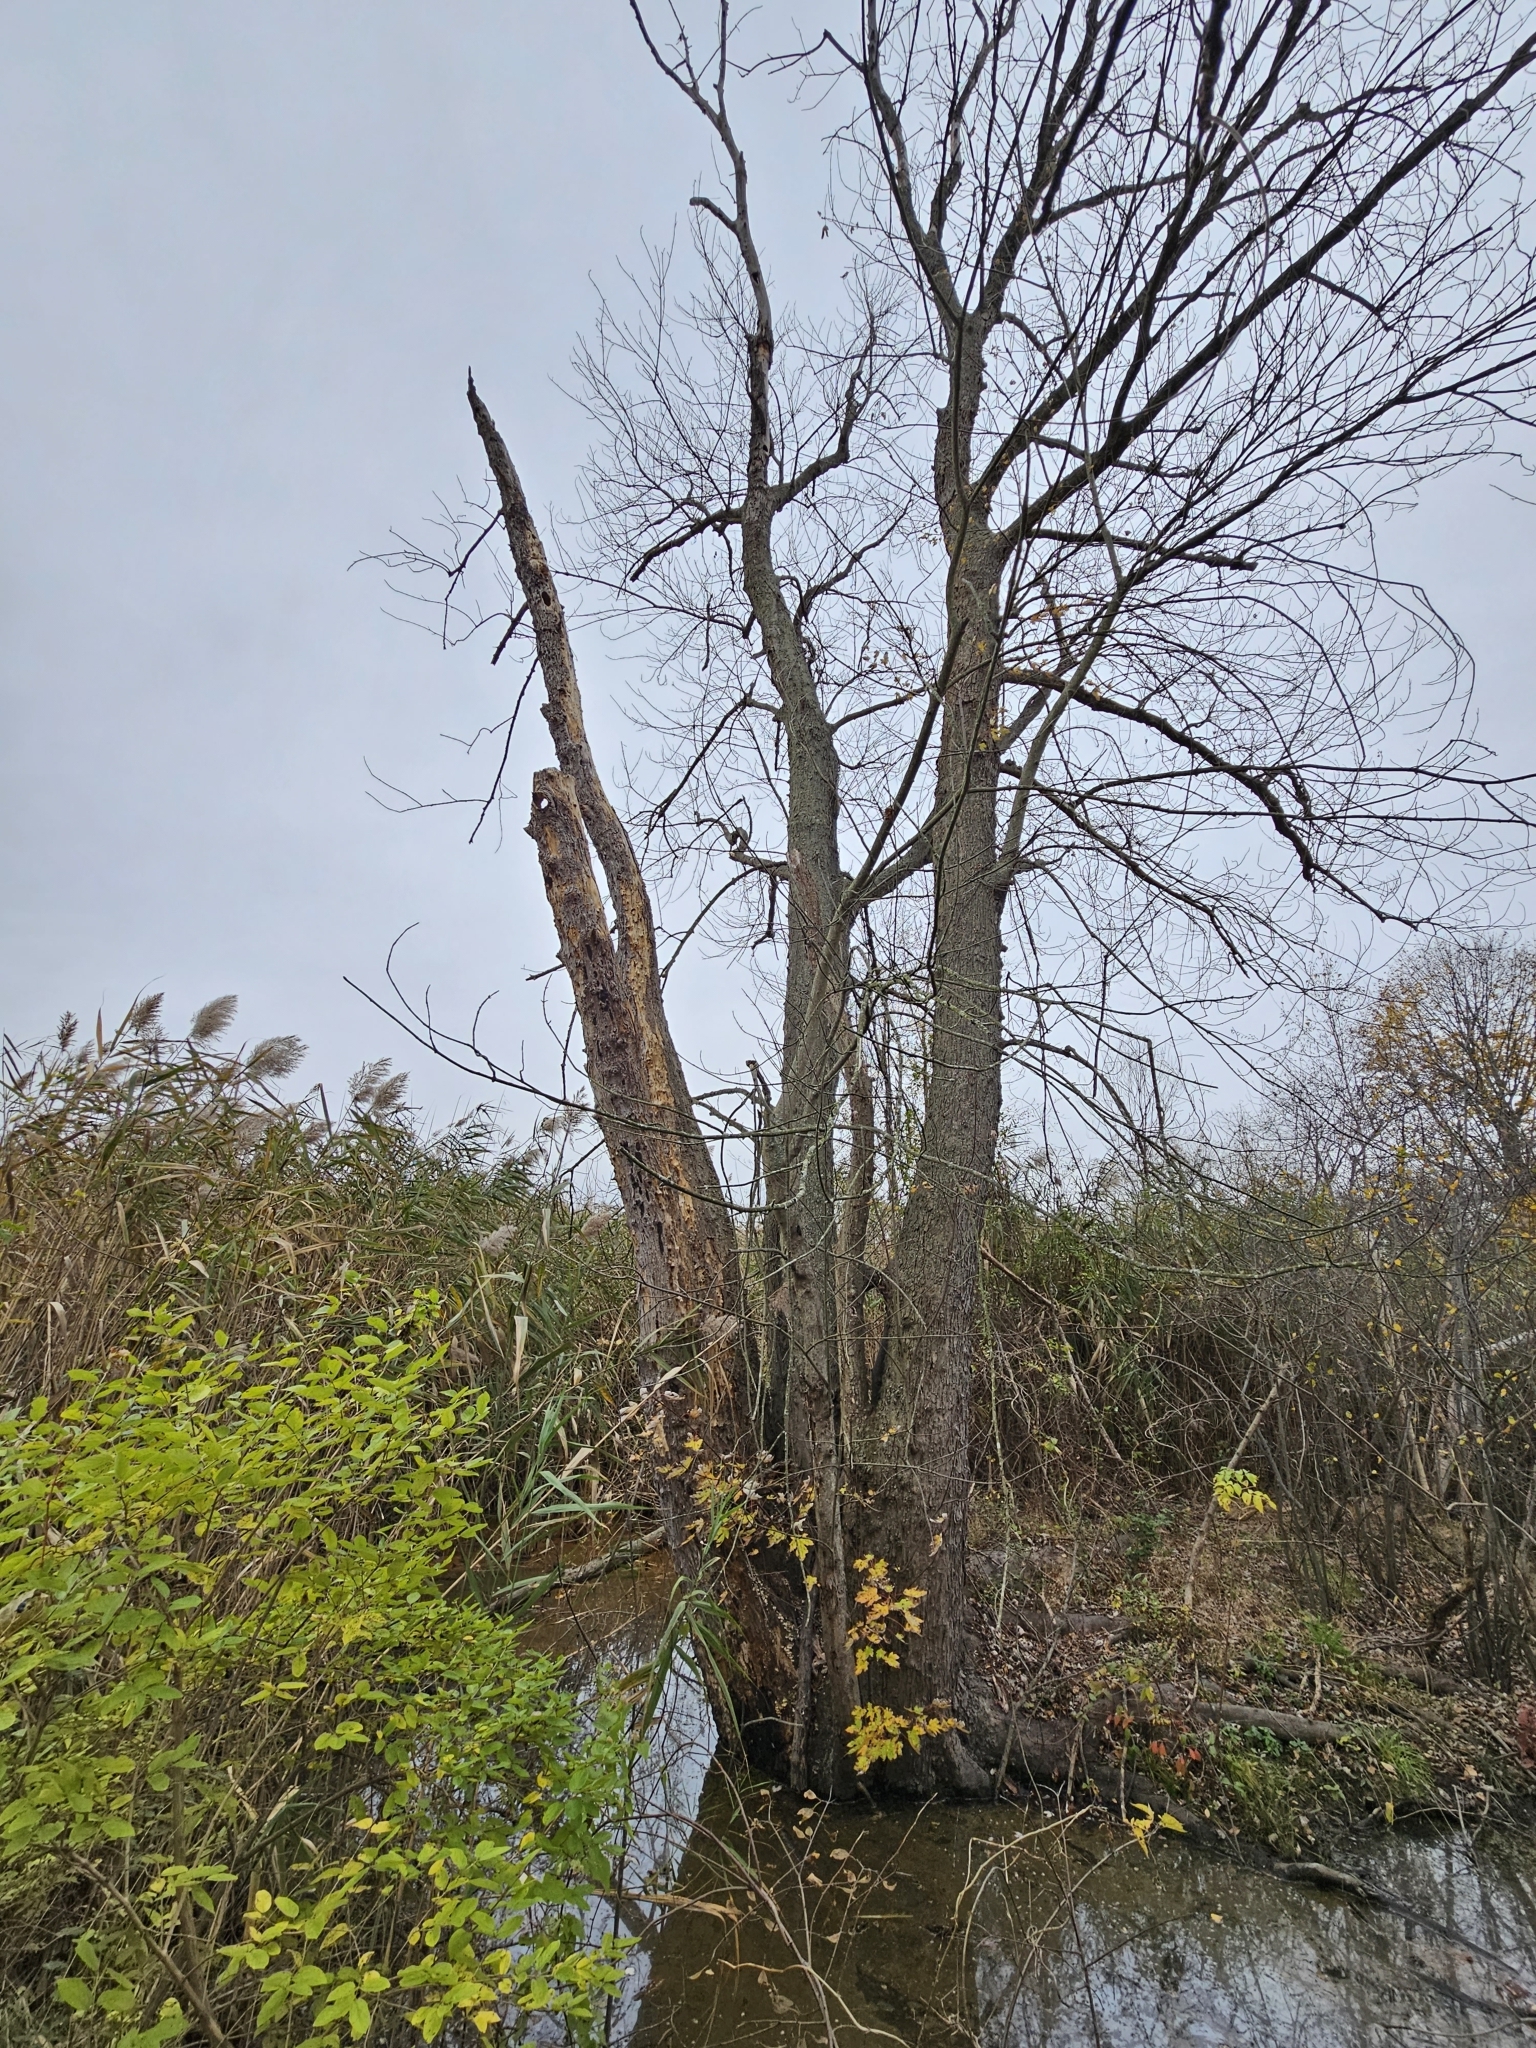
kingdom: Plantae
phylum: Tracheophyta
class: Magnoliopsida
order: Sapindales
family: Sapindaceae
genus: Acer
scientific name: Acer saccharinum
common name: Silver maple
